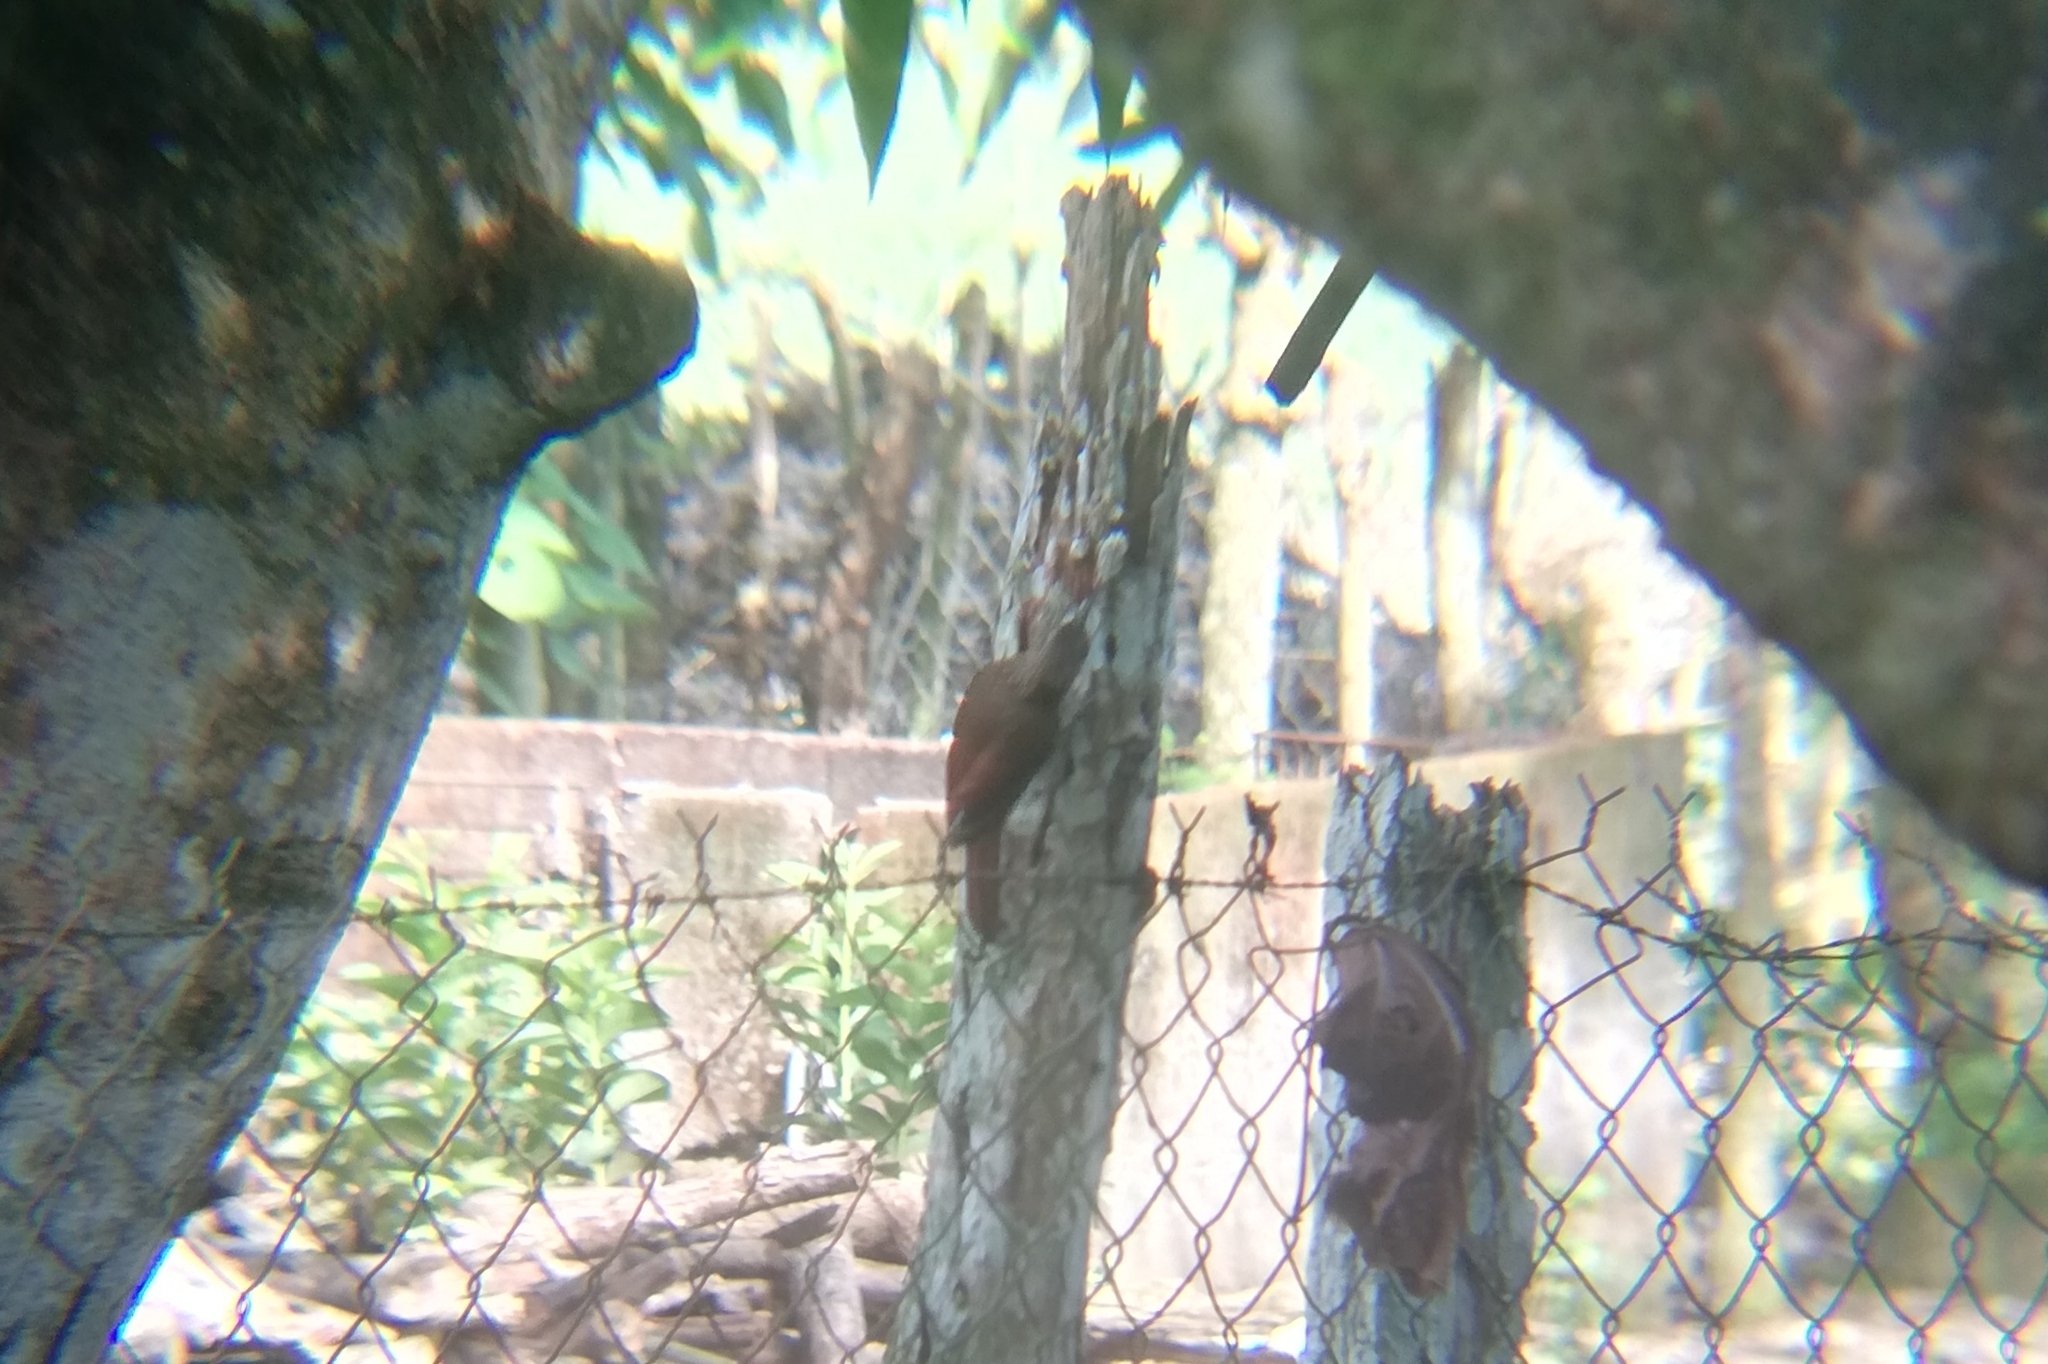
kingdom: Animalia
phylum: Chordata
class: Aves
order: Passeriformes
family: Furnariidae
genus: Xiphorhynchus
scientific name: Xiphorhynchus susurrans
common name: Cocoa woodcreeper
